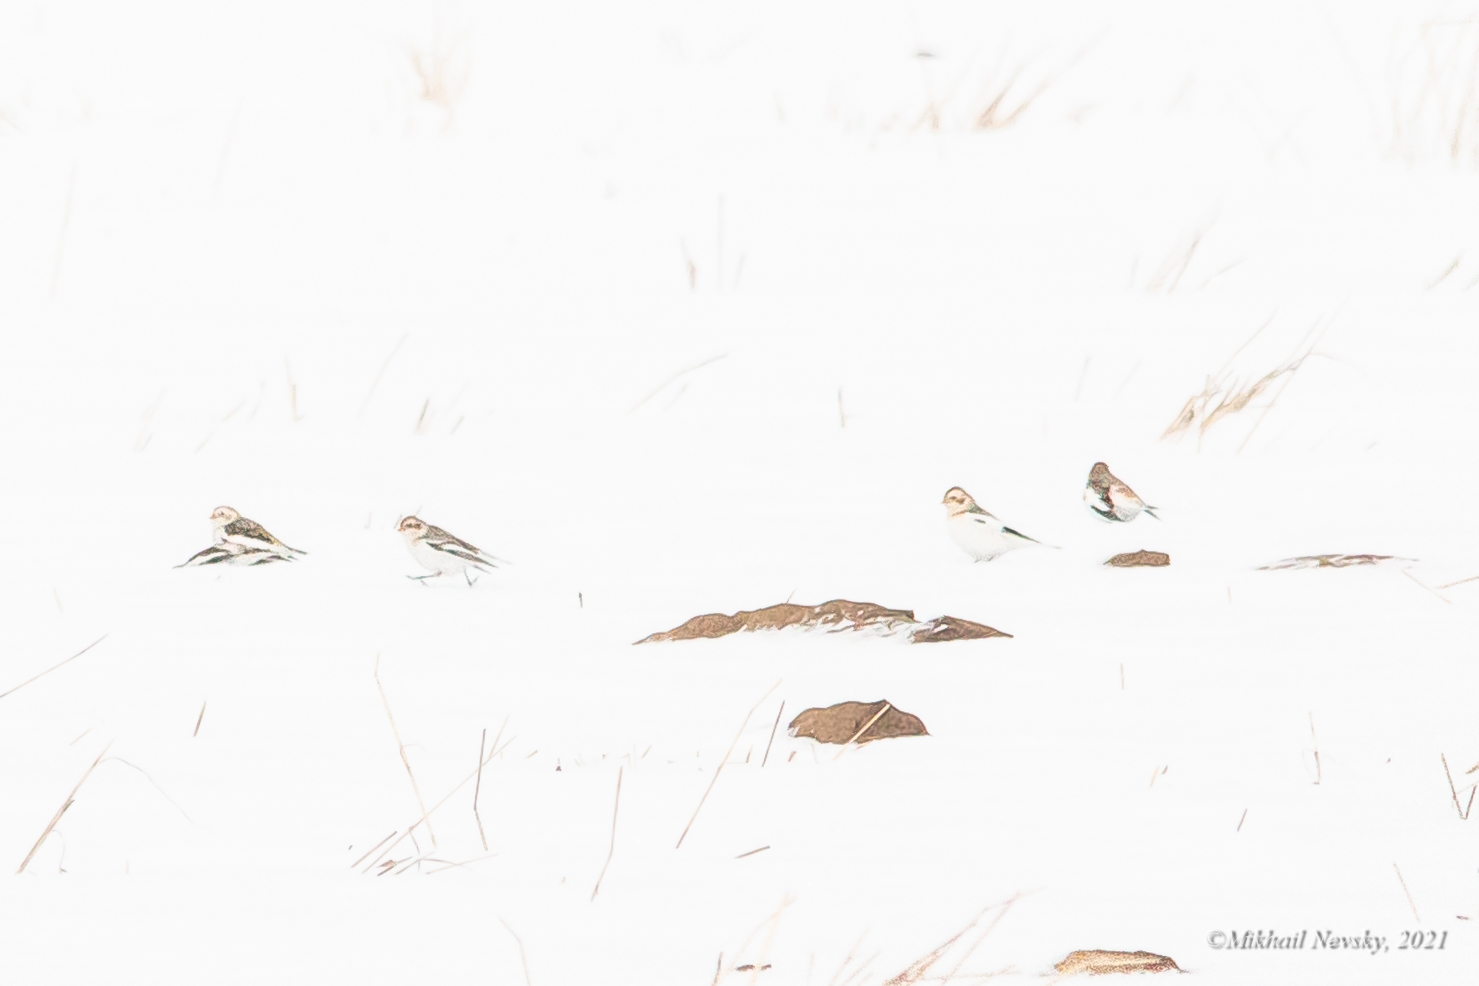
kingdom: Animalia
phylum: Chordata
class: Aves
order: Passeriformes
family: Calcariidae
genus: Plectrophenax
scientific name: Plectrophenax nivalis
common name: Snow bunting
